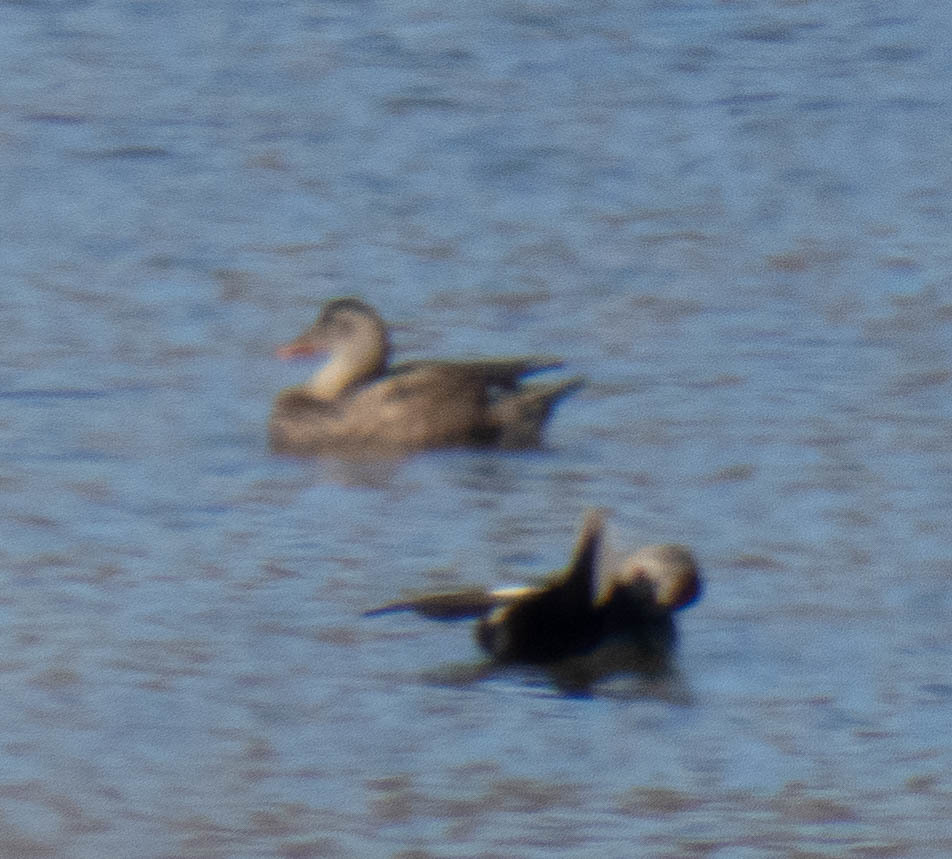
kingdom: Animalia
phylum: Chordata
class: Aves
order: Anseriformes
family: Anatidae
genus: Mareca
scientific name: Mareca strepera
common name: Gadwall
